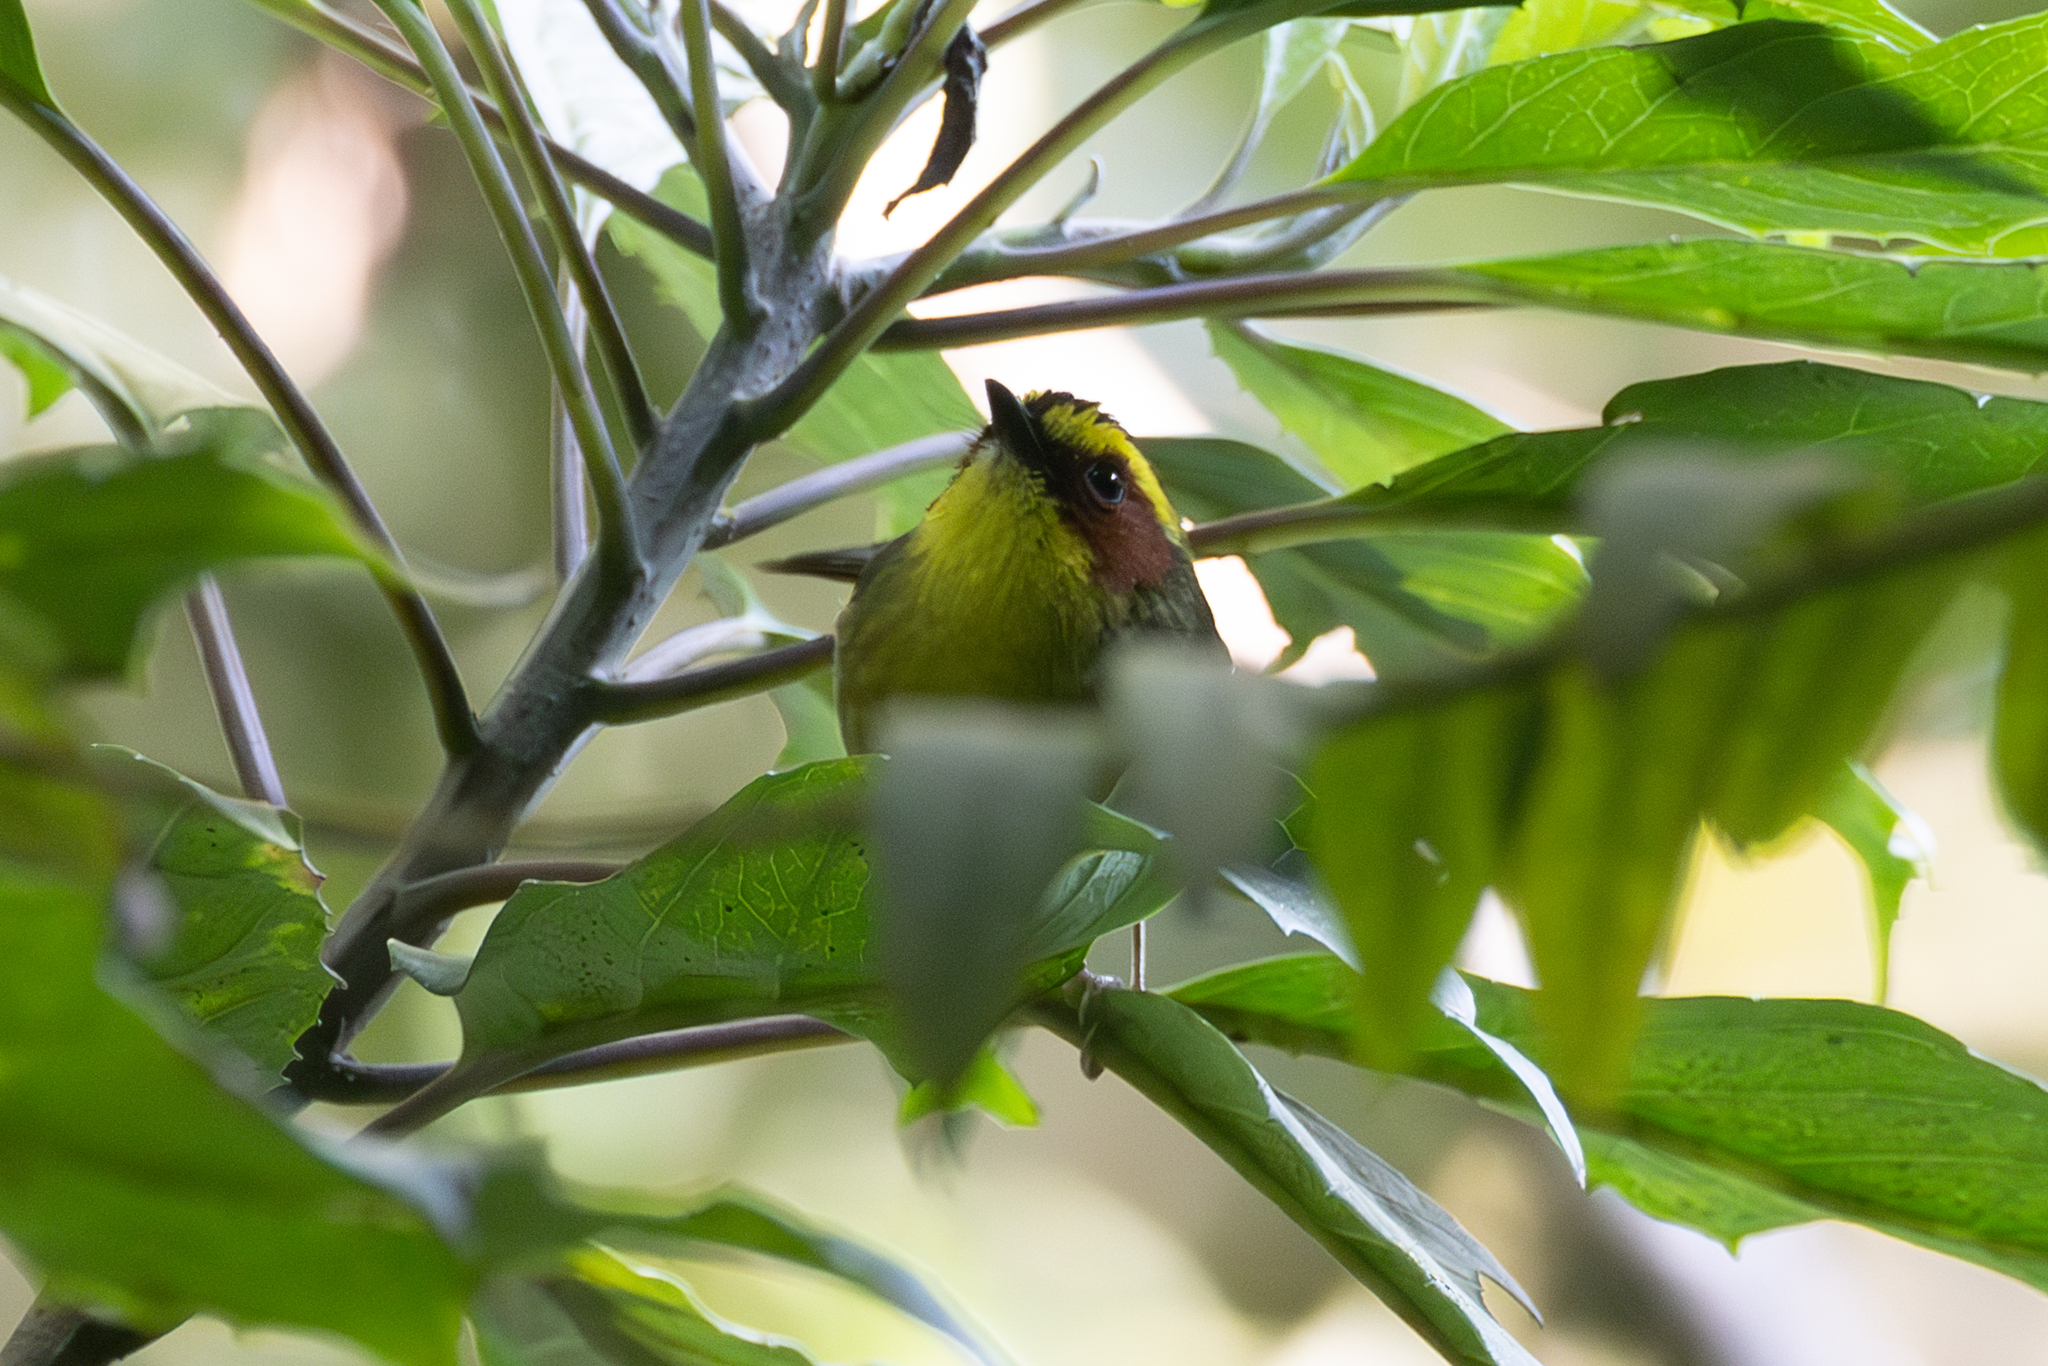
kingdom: Animalia
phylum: Chordata
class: Aves
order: Passeriformes
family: Parulidae
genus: Basileuterus
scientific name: Basileuterus belli
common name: Golden-browed warbler
